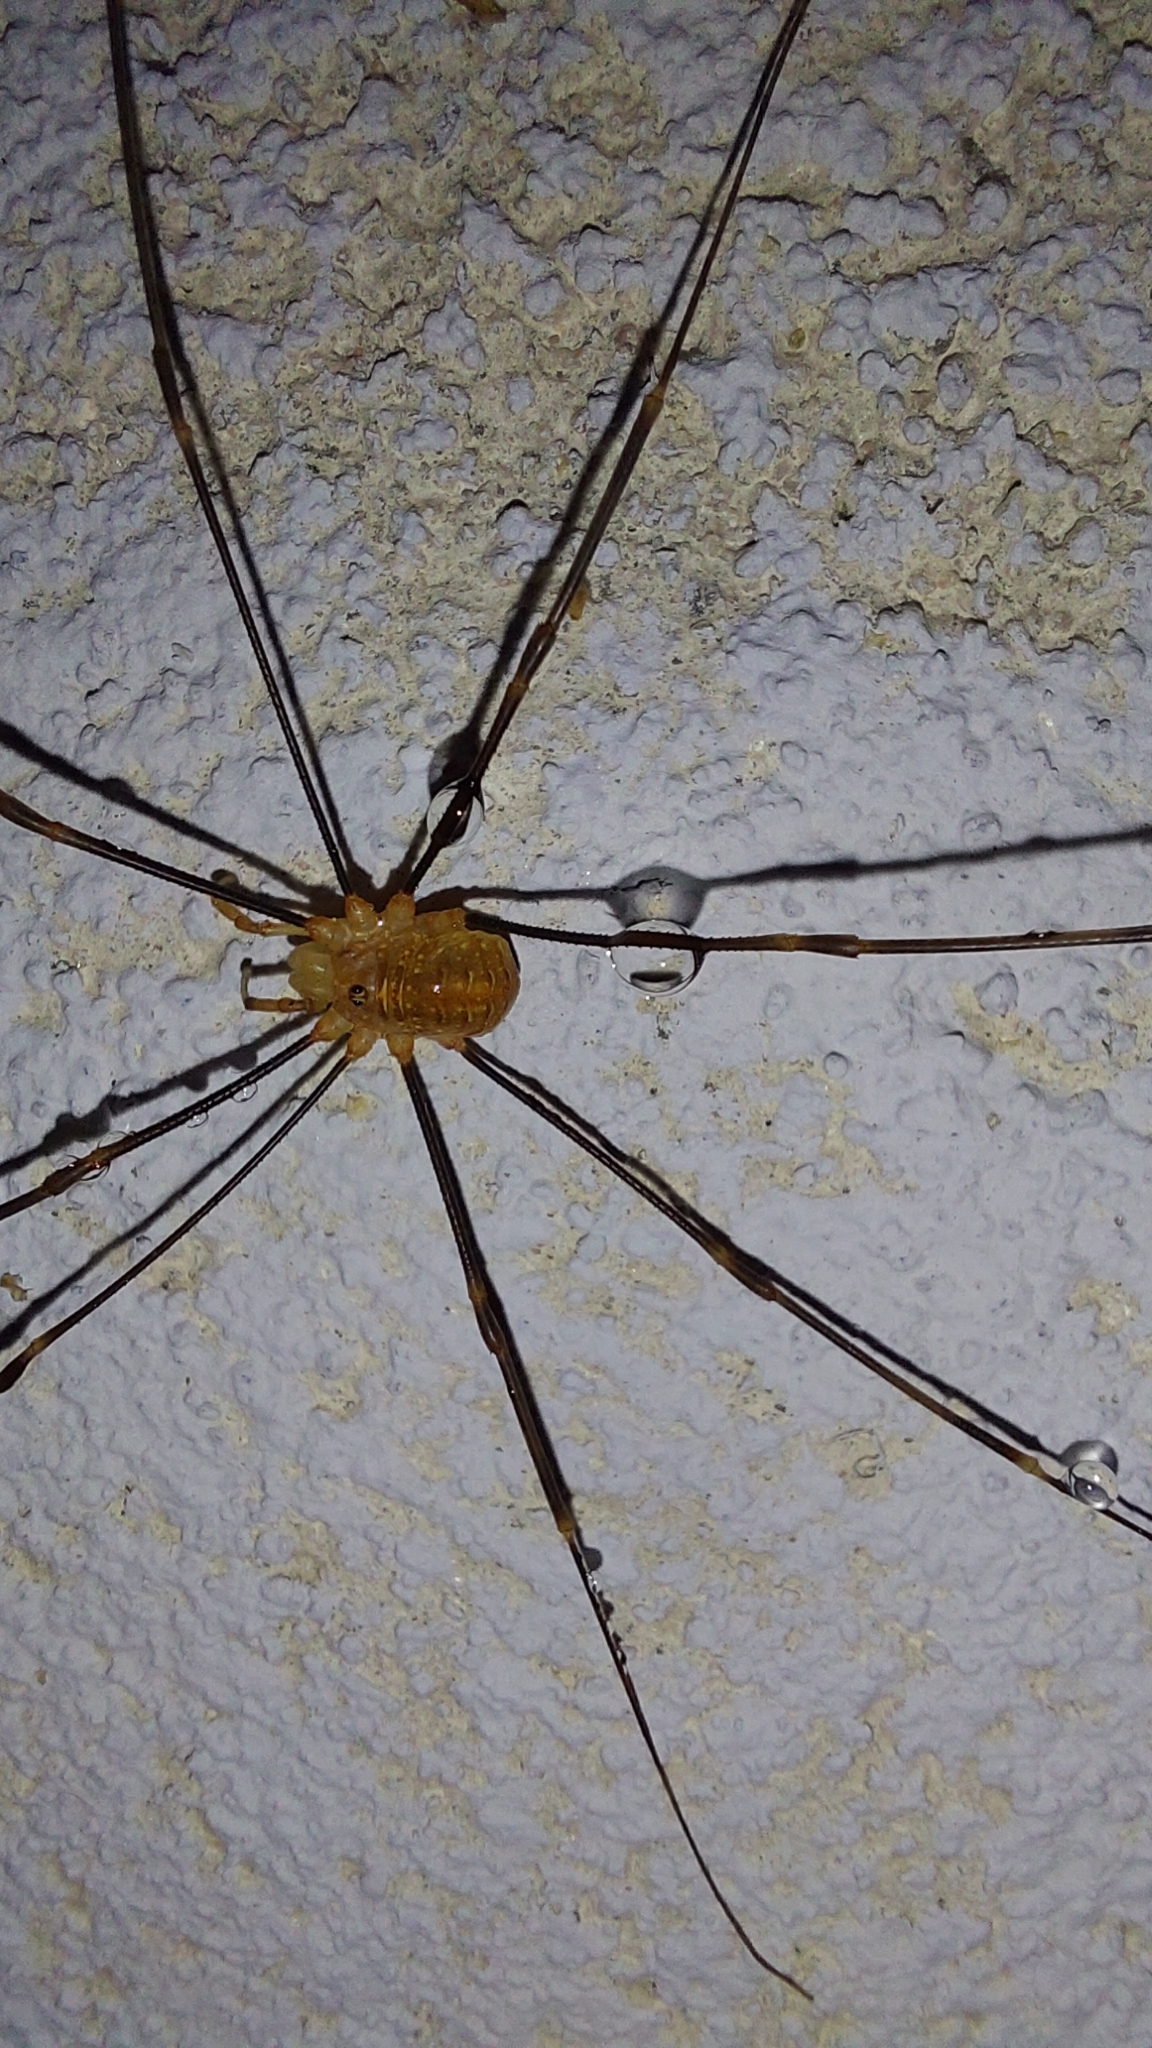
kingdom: Animalia
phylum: Arthropoda
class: Arachnida
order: Opiliones
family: Phalangiidae
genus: Opilio
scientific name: Opilio canestrinii
